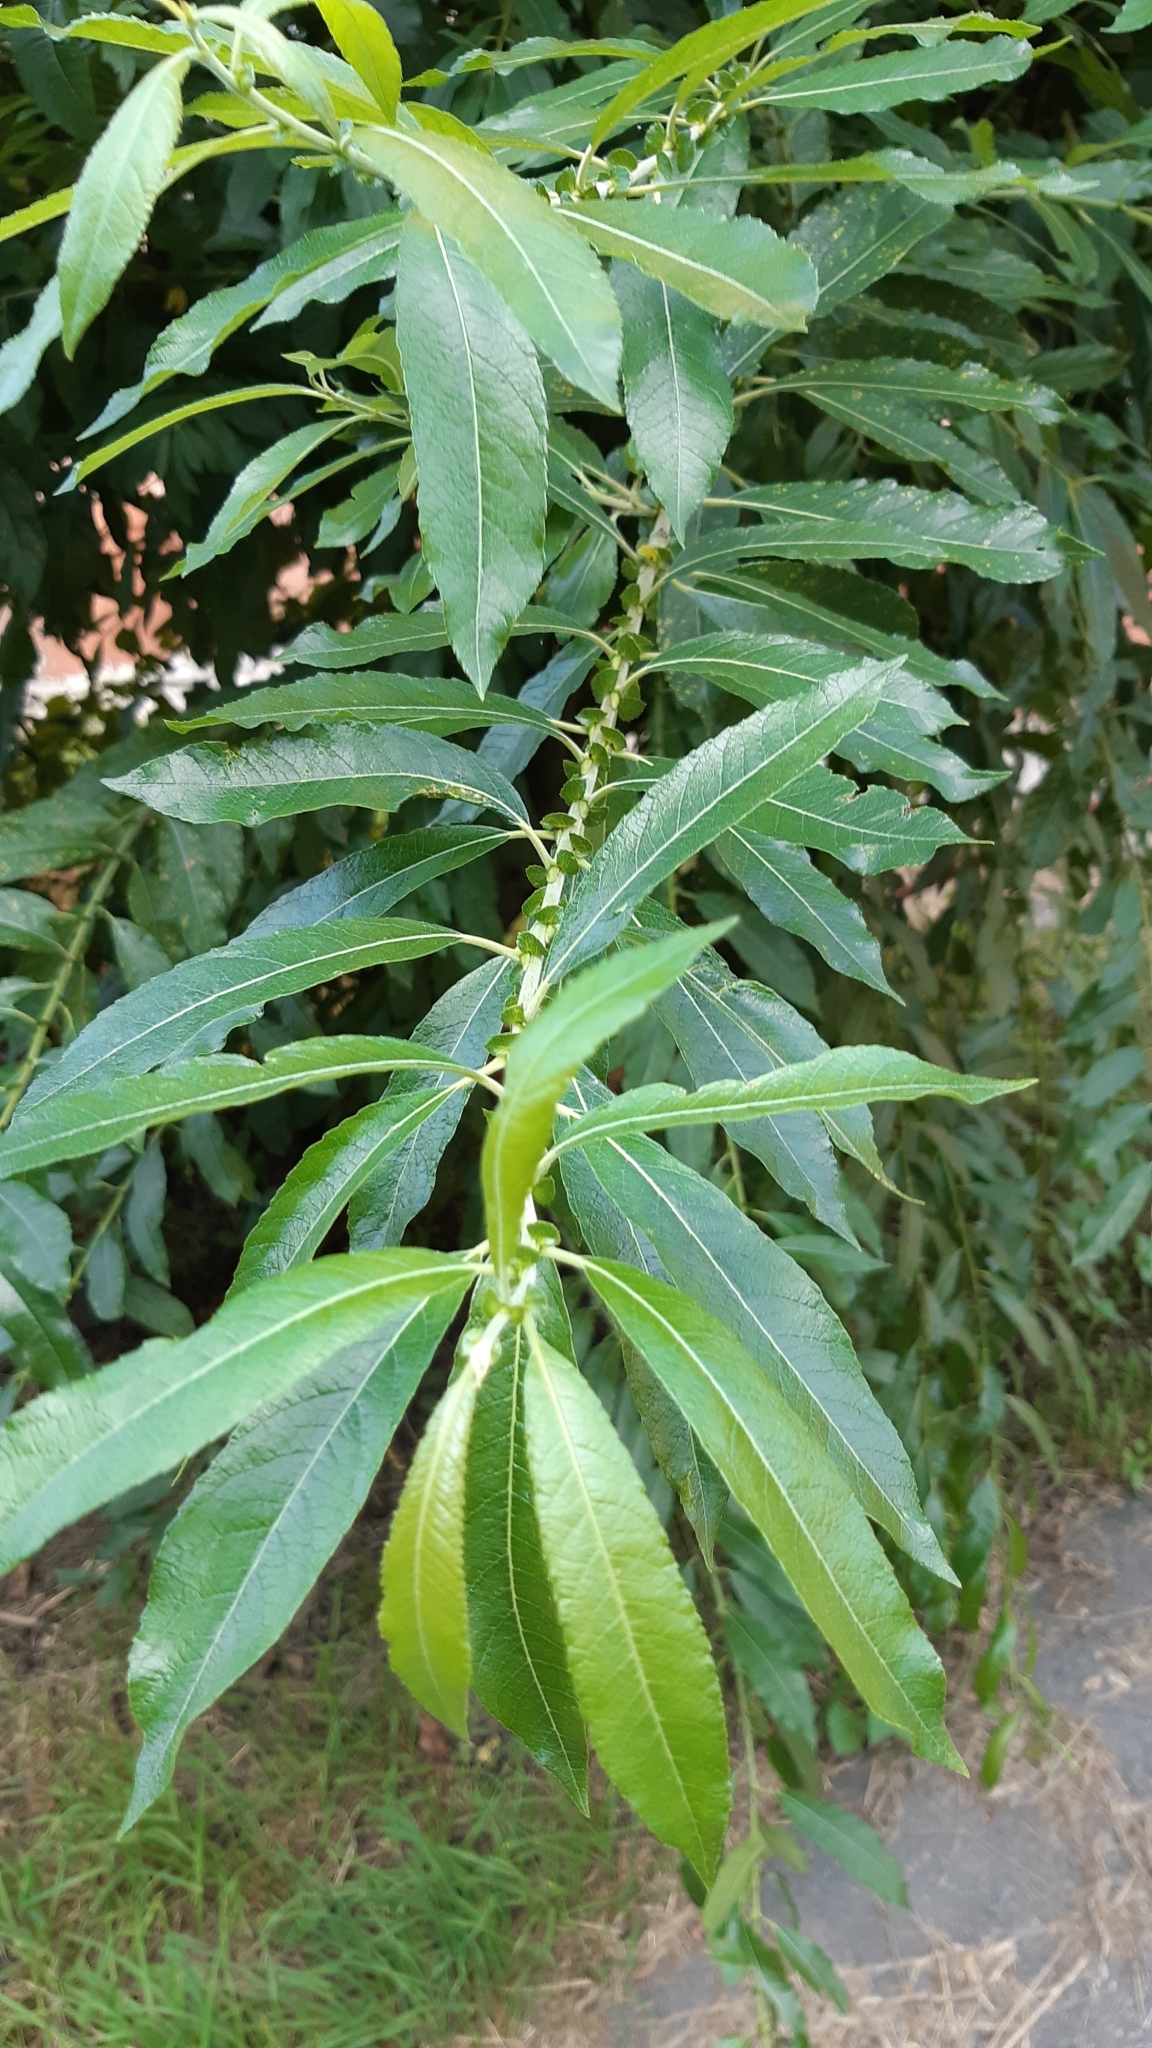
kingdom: Plantae
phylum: Tracheophyta
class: Magnoliopsida
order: Malpighiales
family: Salicaceae
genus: Salix
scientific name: Salix gmelinii
